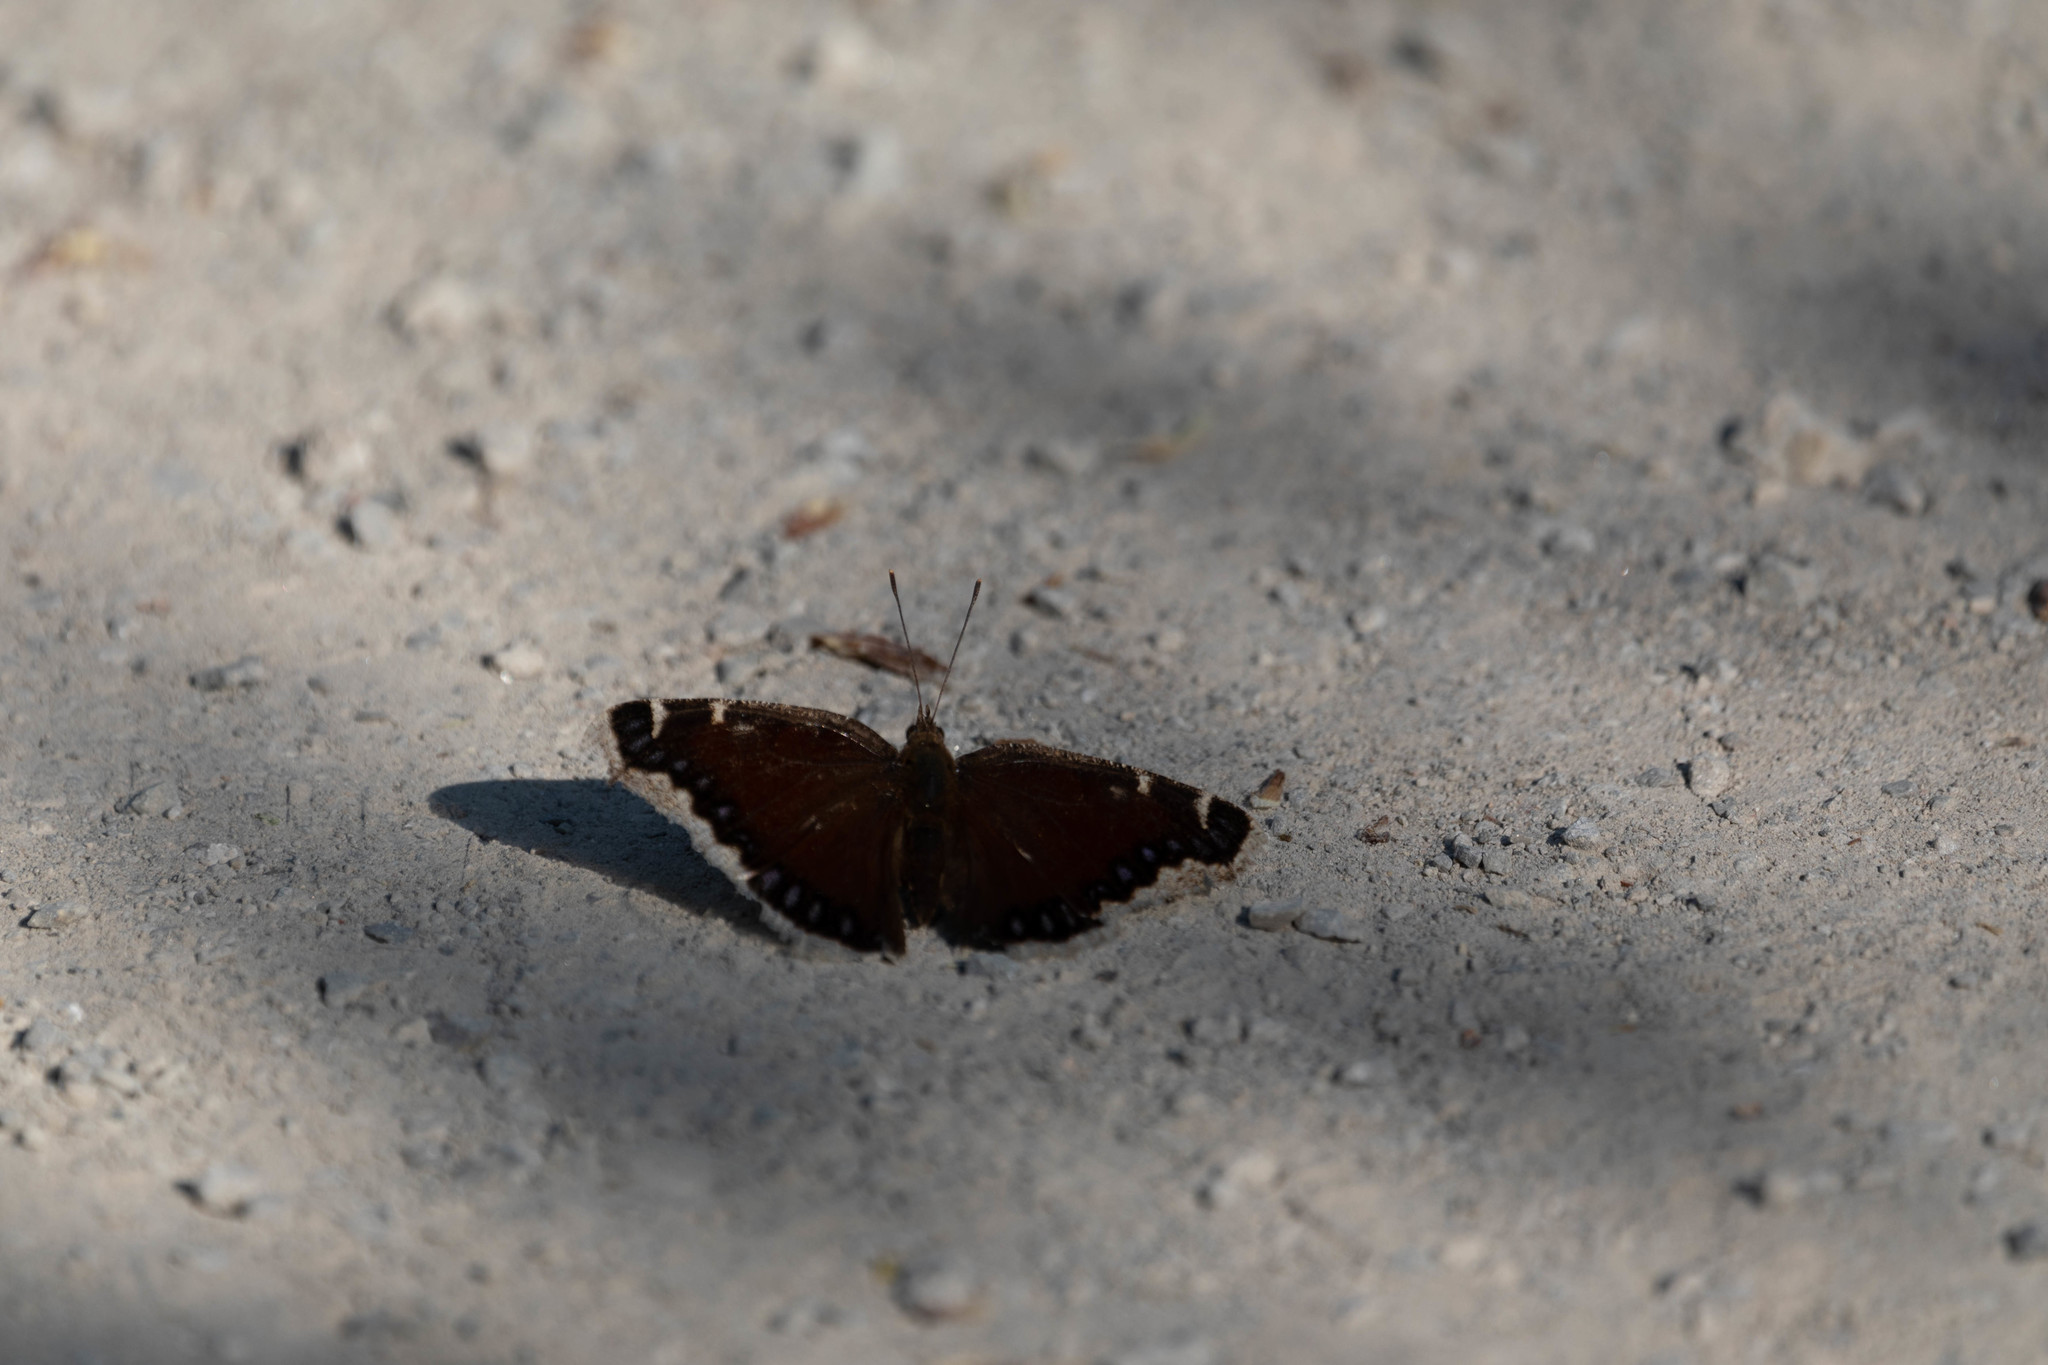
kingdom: Animalia
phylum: Arthropoda
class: Insecta
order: Lepidoptera
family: Nymphalidae
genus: Nymphalis
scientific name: Nymphalis antiopa
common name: Camberwell beauty
